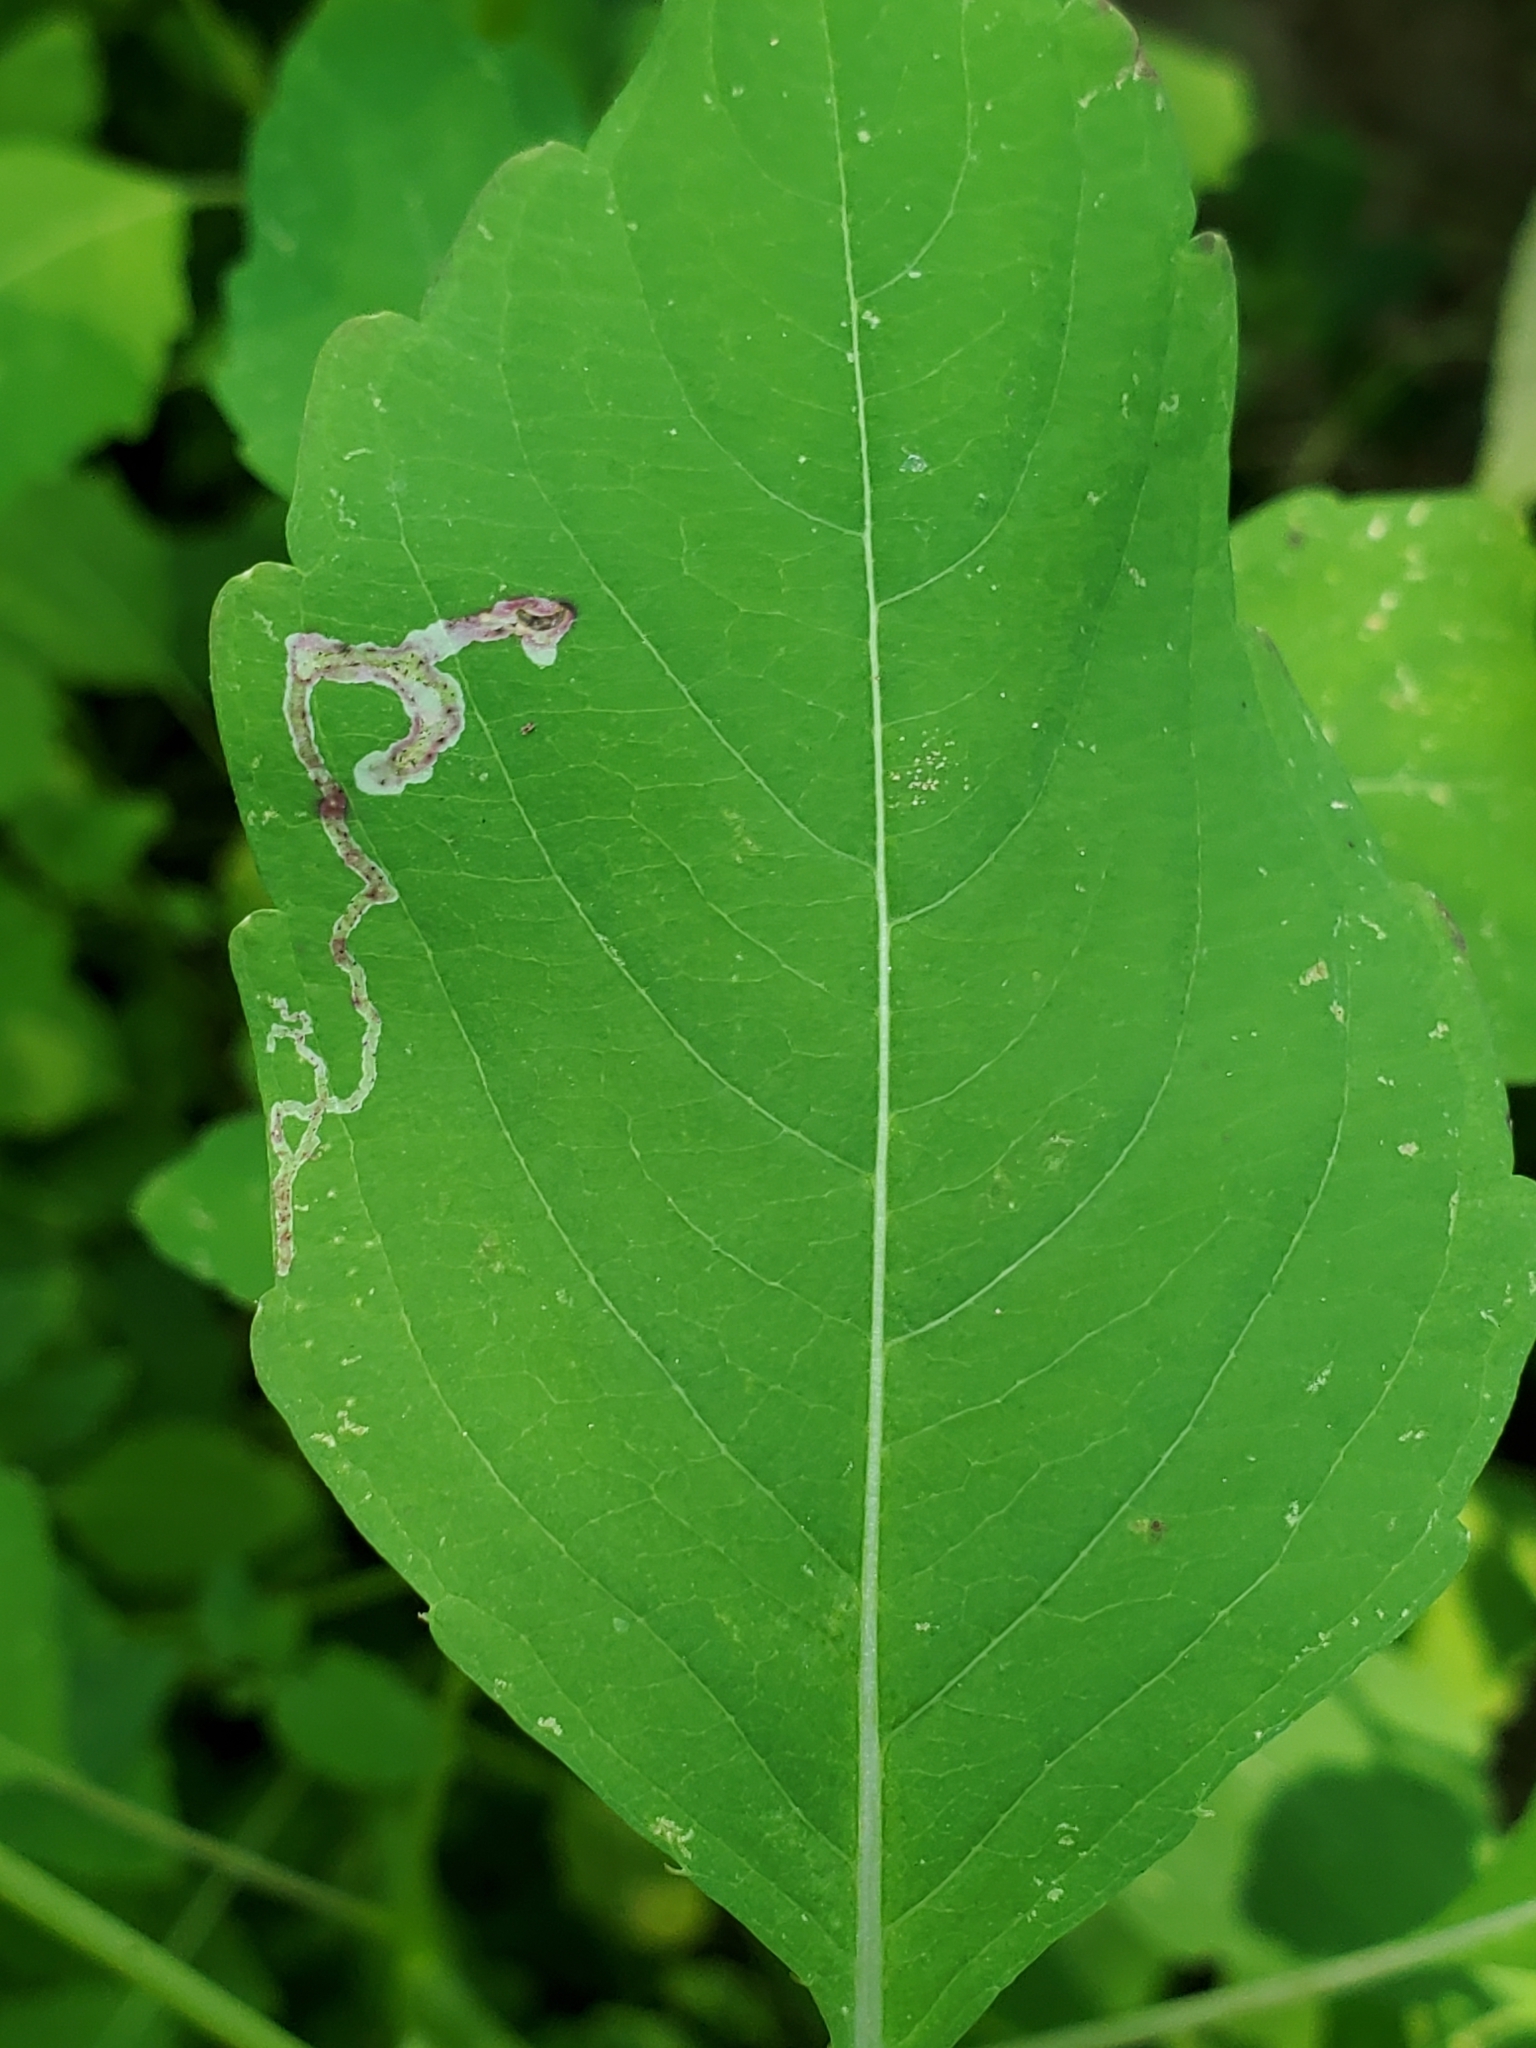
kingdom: Animalia
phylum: Arthropoda
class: Insecta
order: Diptera
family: Agromyzidae
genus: Phytoliriomyza
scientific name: Phytoliriomyza melampyga
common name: Jewelweed leaf-miner fly
